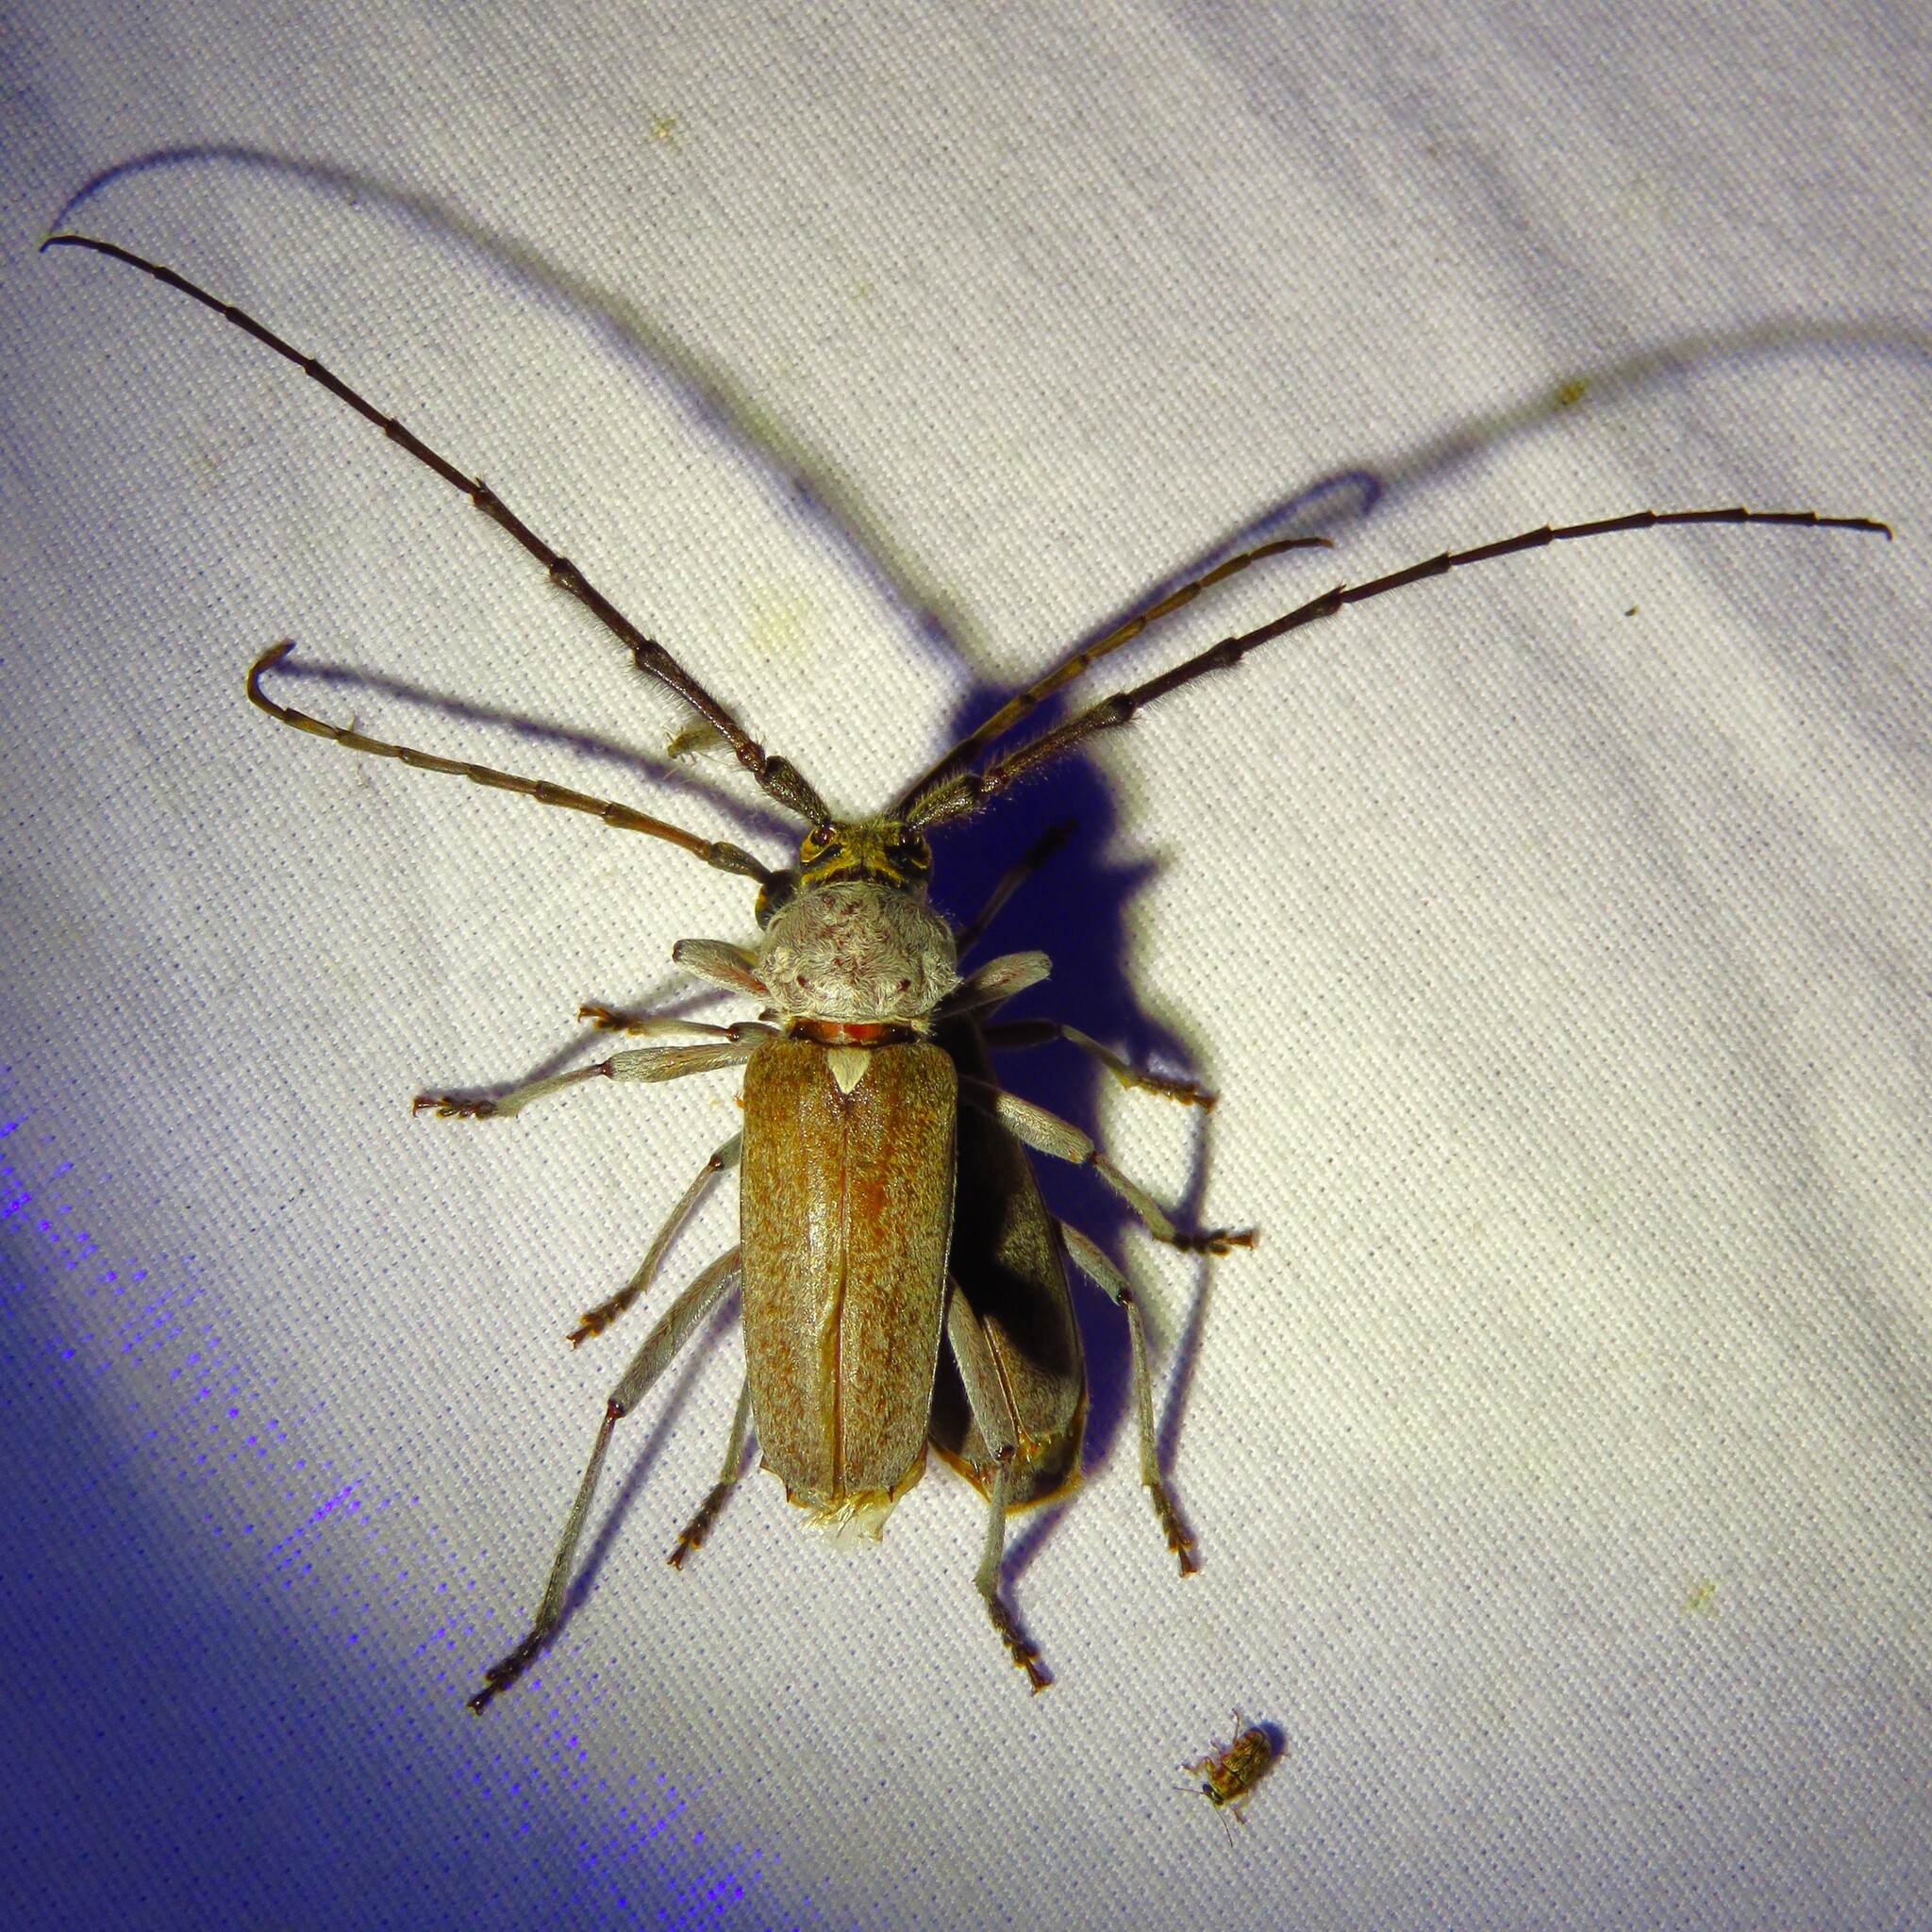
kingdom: Animalia
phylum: Arthropoda
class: Insecta
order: Coleoptera
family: Cerambycidae
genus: Gnaphalodes
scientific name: Gnaphalodes trachyderoides
